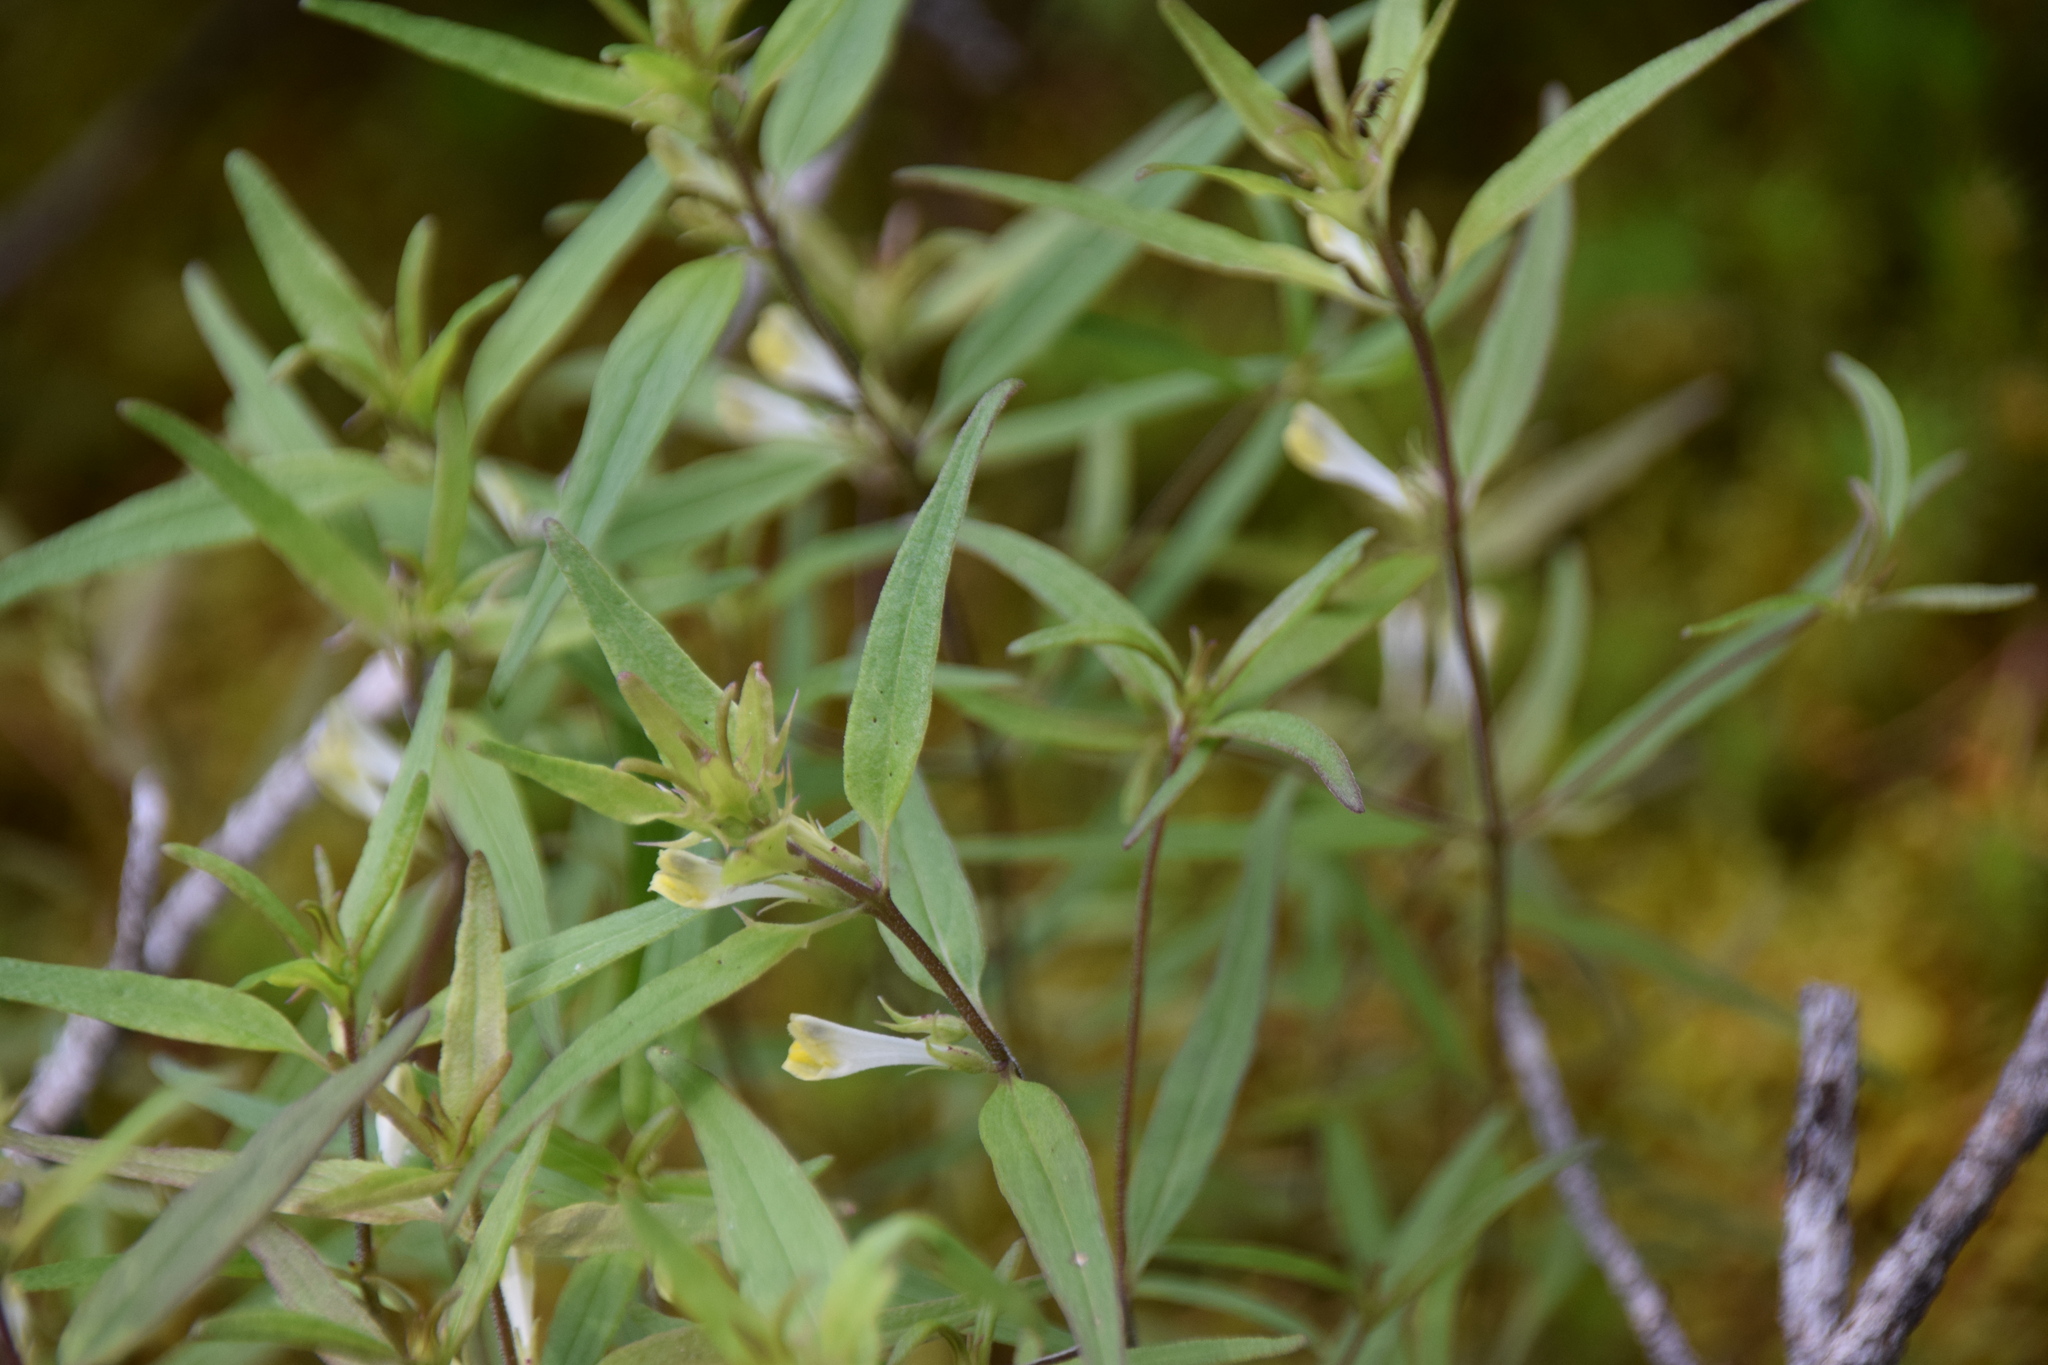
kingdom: Plantae
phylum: Tracheophyta
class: Magnoliopsida
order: Lamiales
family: Orobanchaceae
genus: Melampyrum
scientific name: Melampyrum lineare
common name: American cow-wheat
